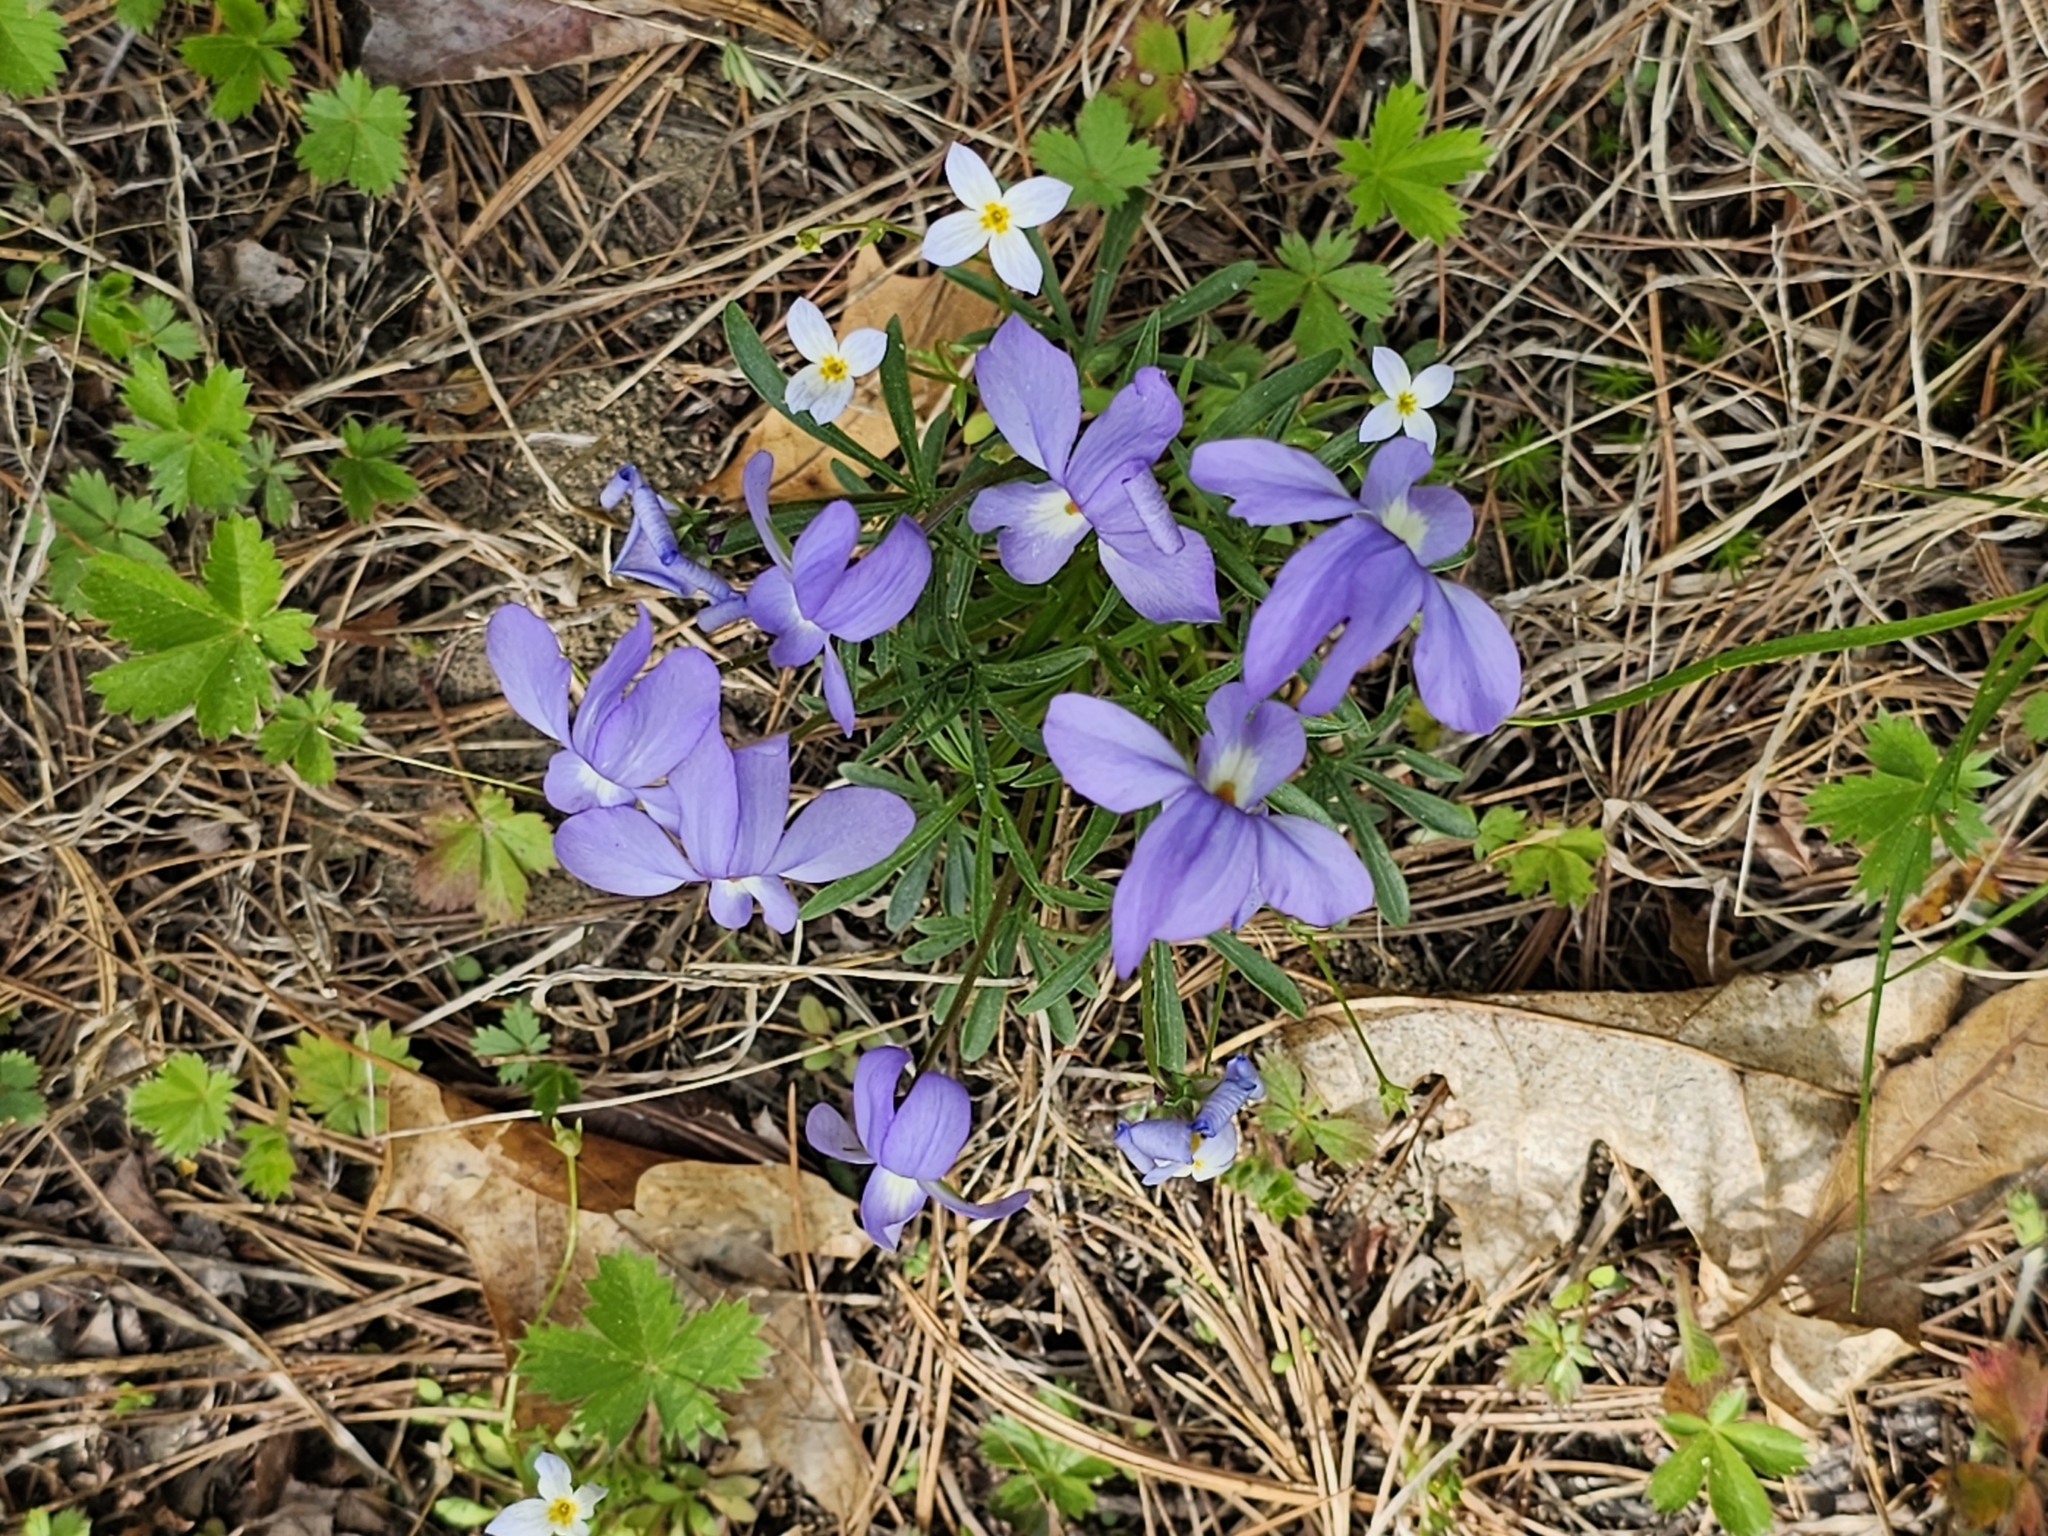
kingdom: Plantae
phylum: Tracheophyta
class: Magnoliopsida
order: Malpighiales
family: Violaceae
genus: Viola
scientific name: Viola pedata
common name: Pansy violet
